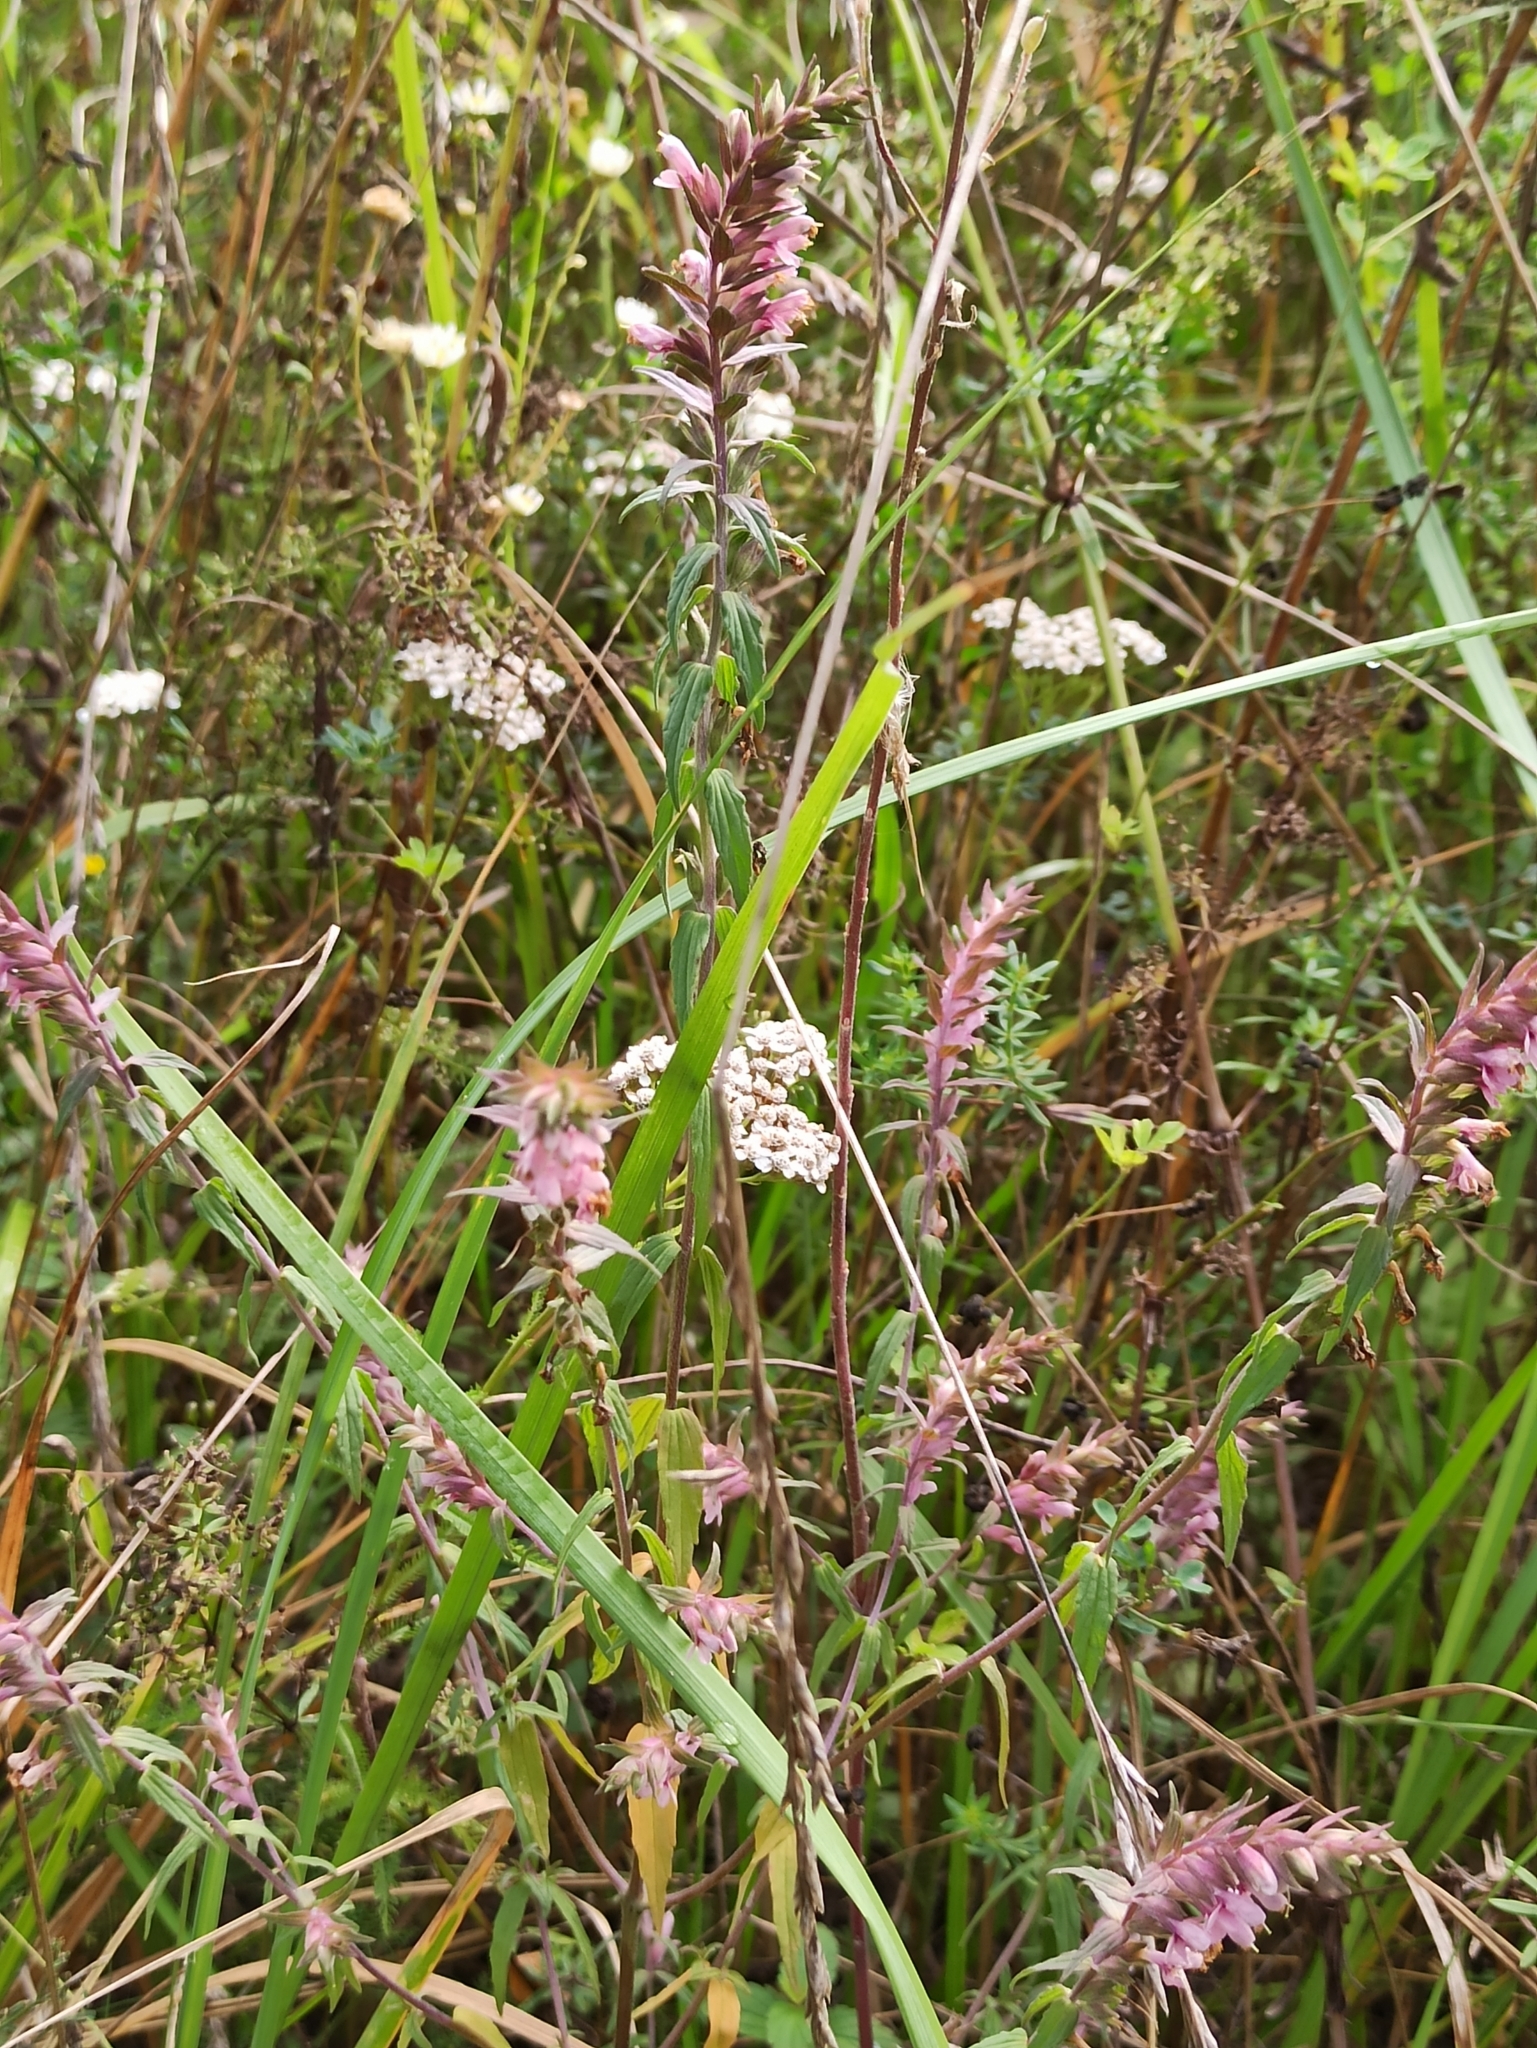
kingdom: Plantae
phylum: Tracheophyta
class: Magnoliopsida
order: Lamiales
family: Orobanchaceae
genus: Odontites
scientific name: Odontites vulgaris
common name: Broomrape
